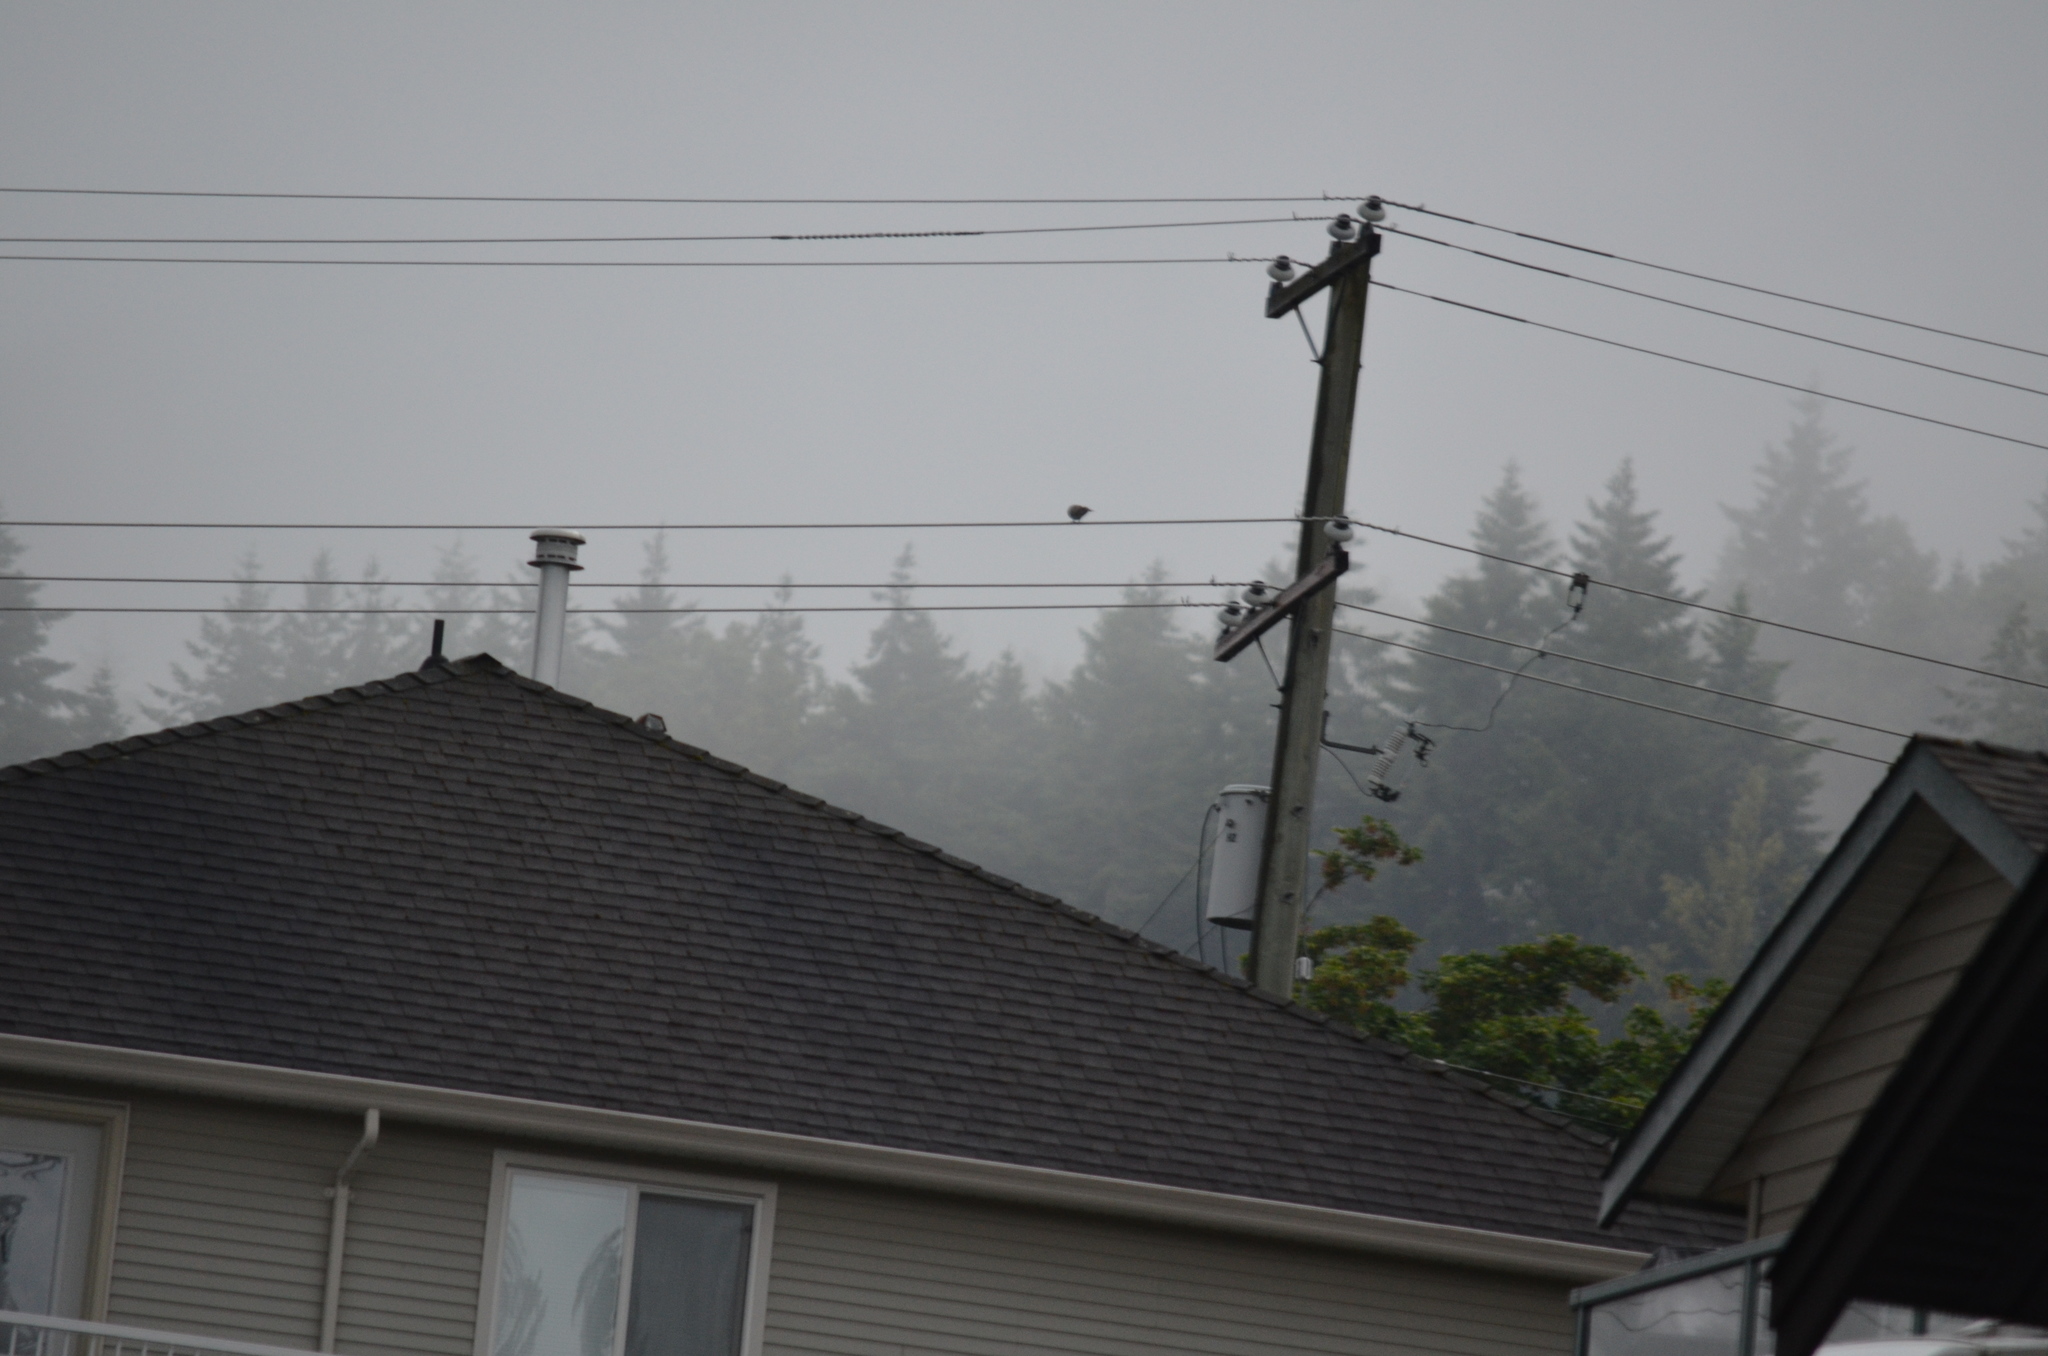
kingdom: Animalia
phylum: Chordata
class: Aves
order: Columbiformes
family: Columbidae
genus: Streptopelia
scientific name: Streptopelia decaocto
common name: Eurasian collared dove
